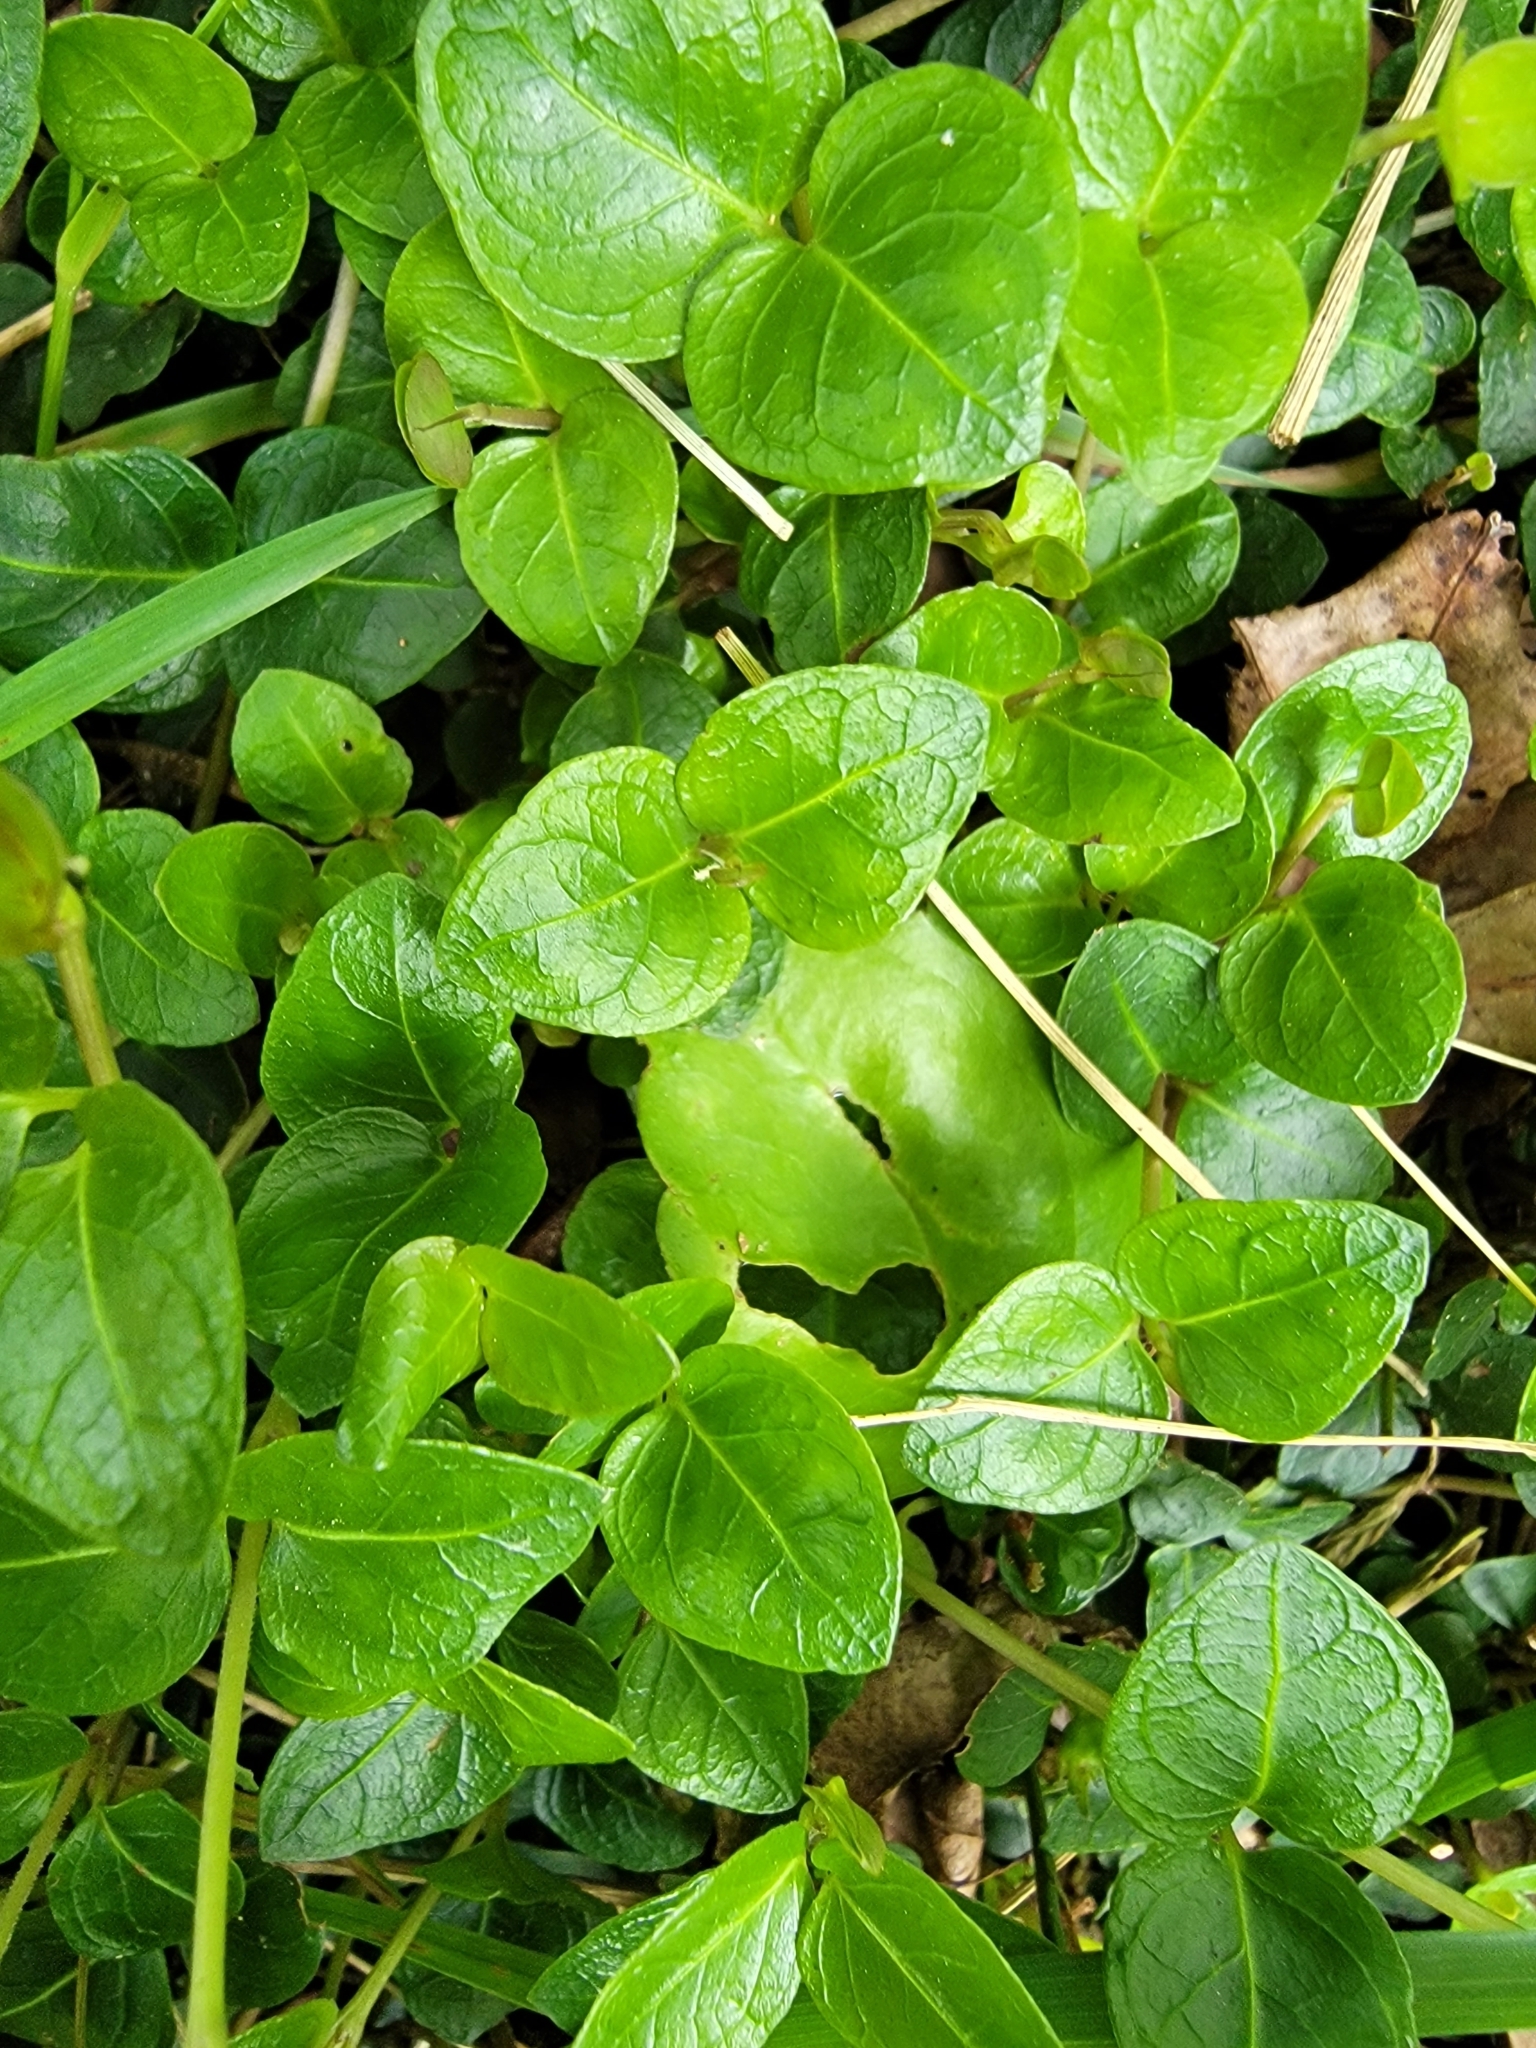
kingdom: Plantae
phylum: Tracheophyta
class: Magnoliopsida
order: Gentianales
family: Rubiaceae
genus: Mitchella
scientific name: Mitchella repens
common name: Partridge-berry
